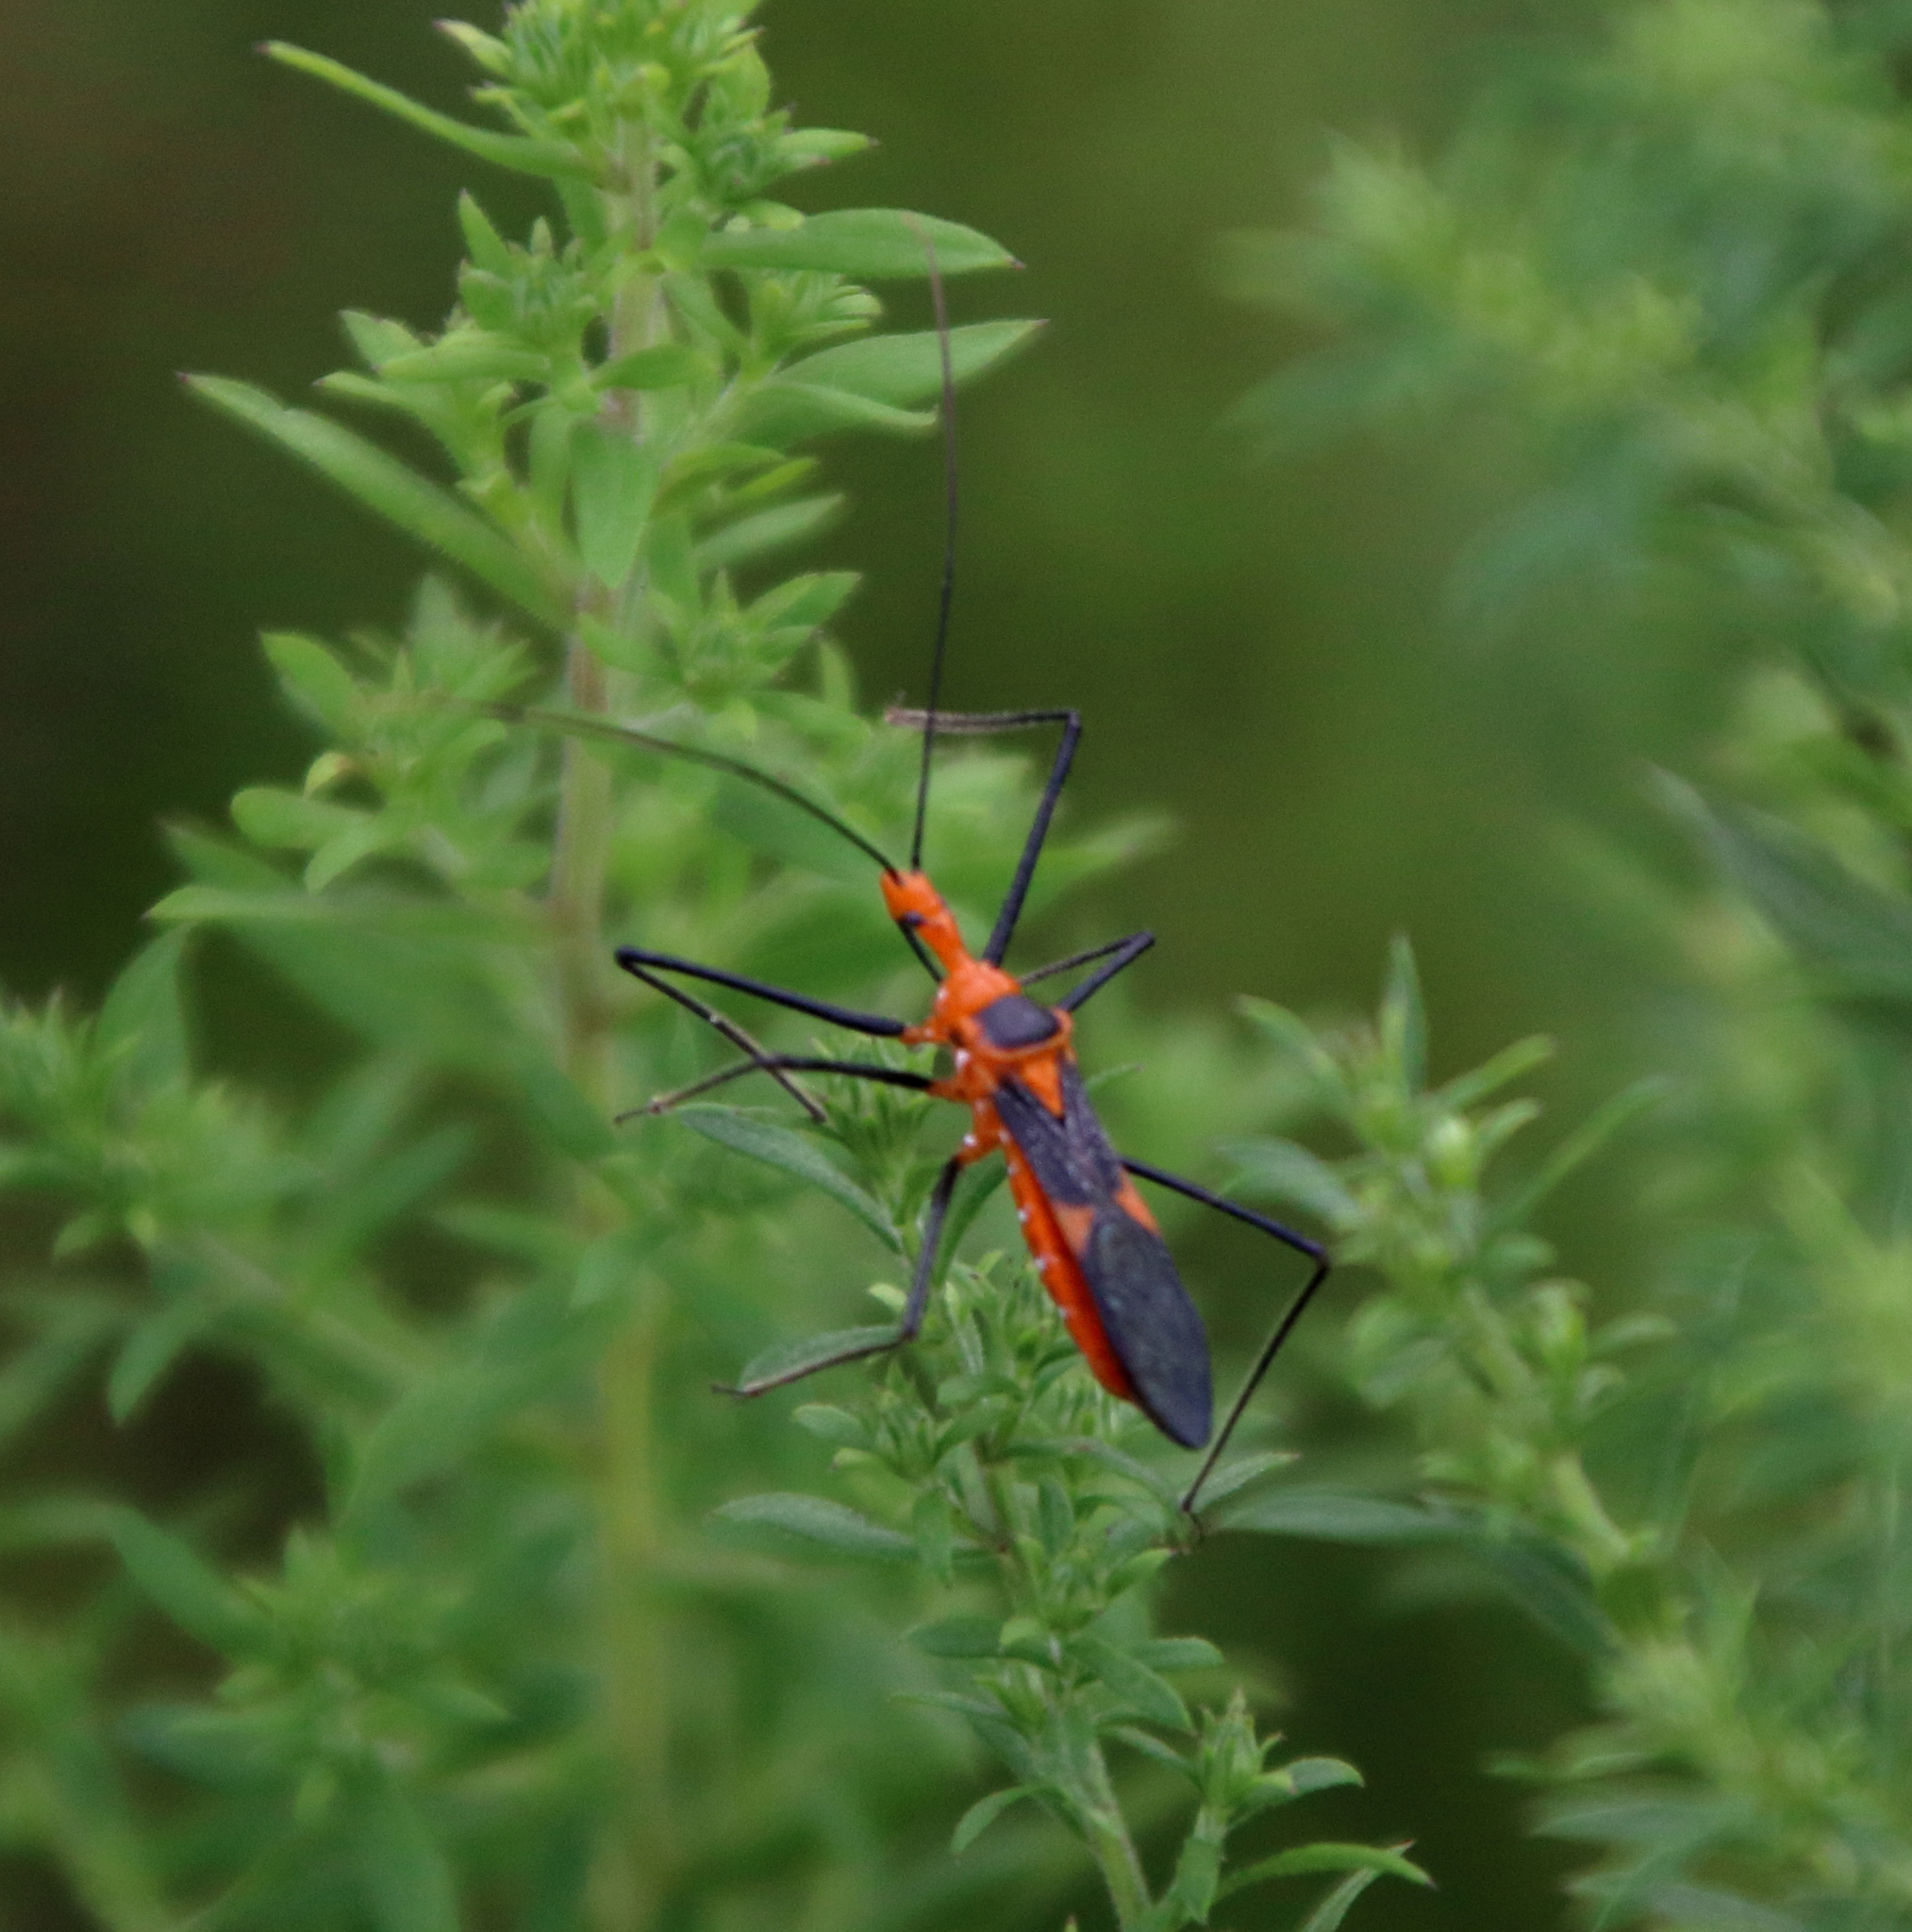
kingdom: Animalia
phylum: Arthropoda
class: Insecta
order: Hemiptera
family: Reduviidae
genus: Zelus
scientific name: Zelus longipes
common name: Milkweed assassin bug
